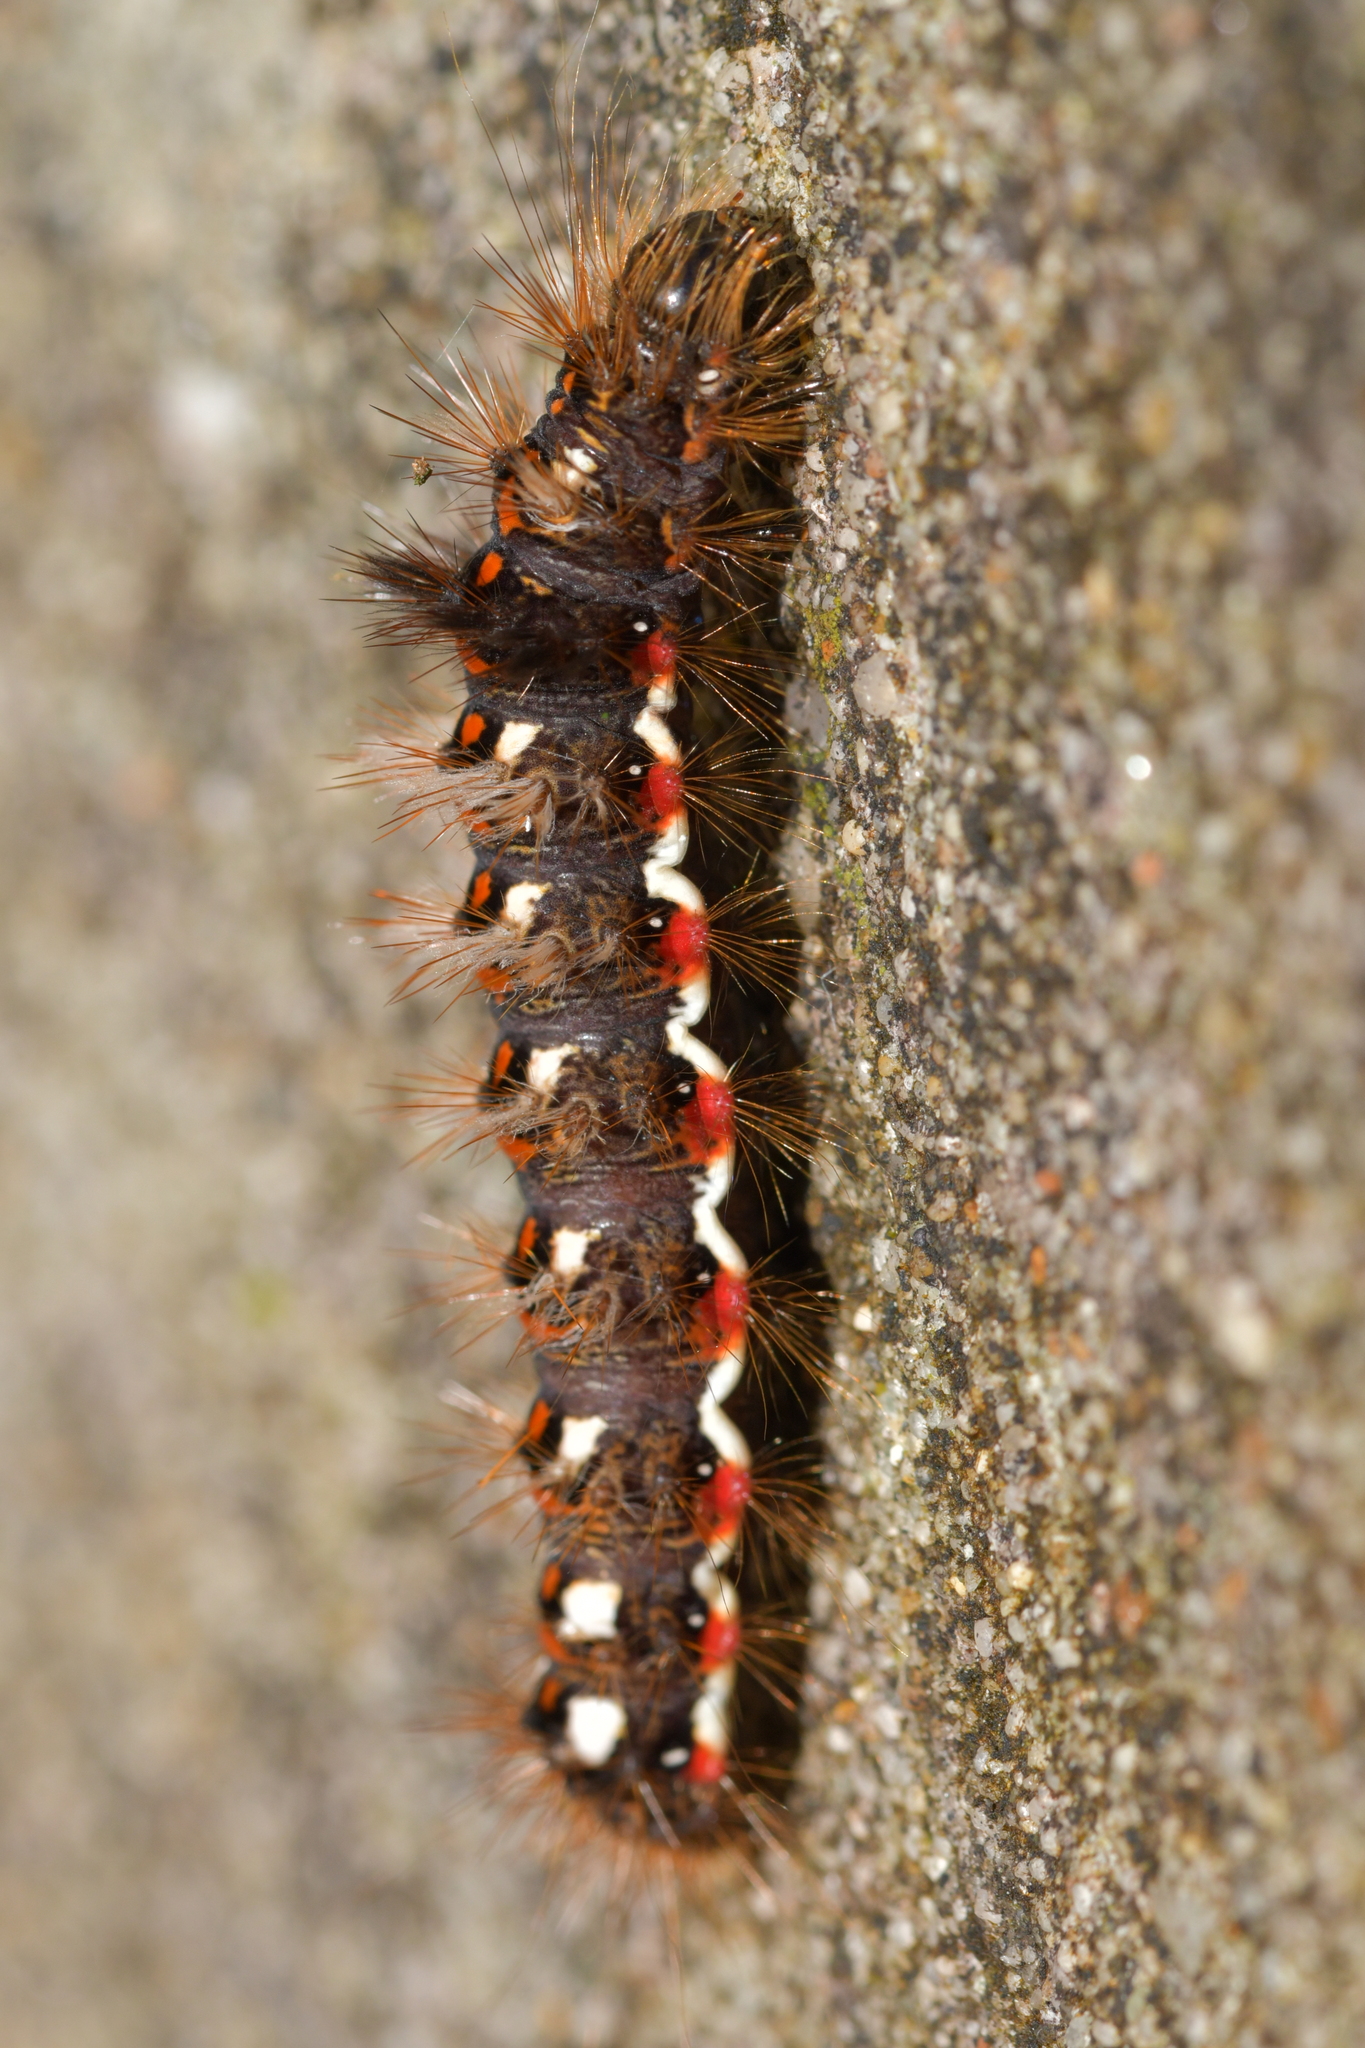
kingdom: Animalia
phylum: Arthropoda
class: Insecta
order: Lepidoptera
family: Noctuidae
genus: Acronicta
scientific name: Acronicta rumicis
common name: Knot grass
